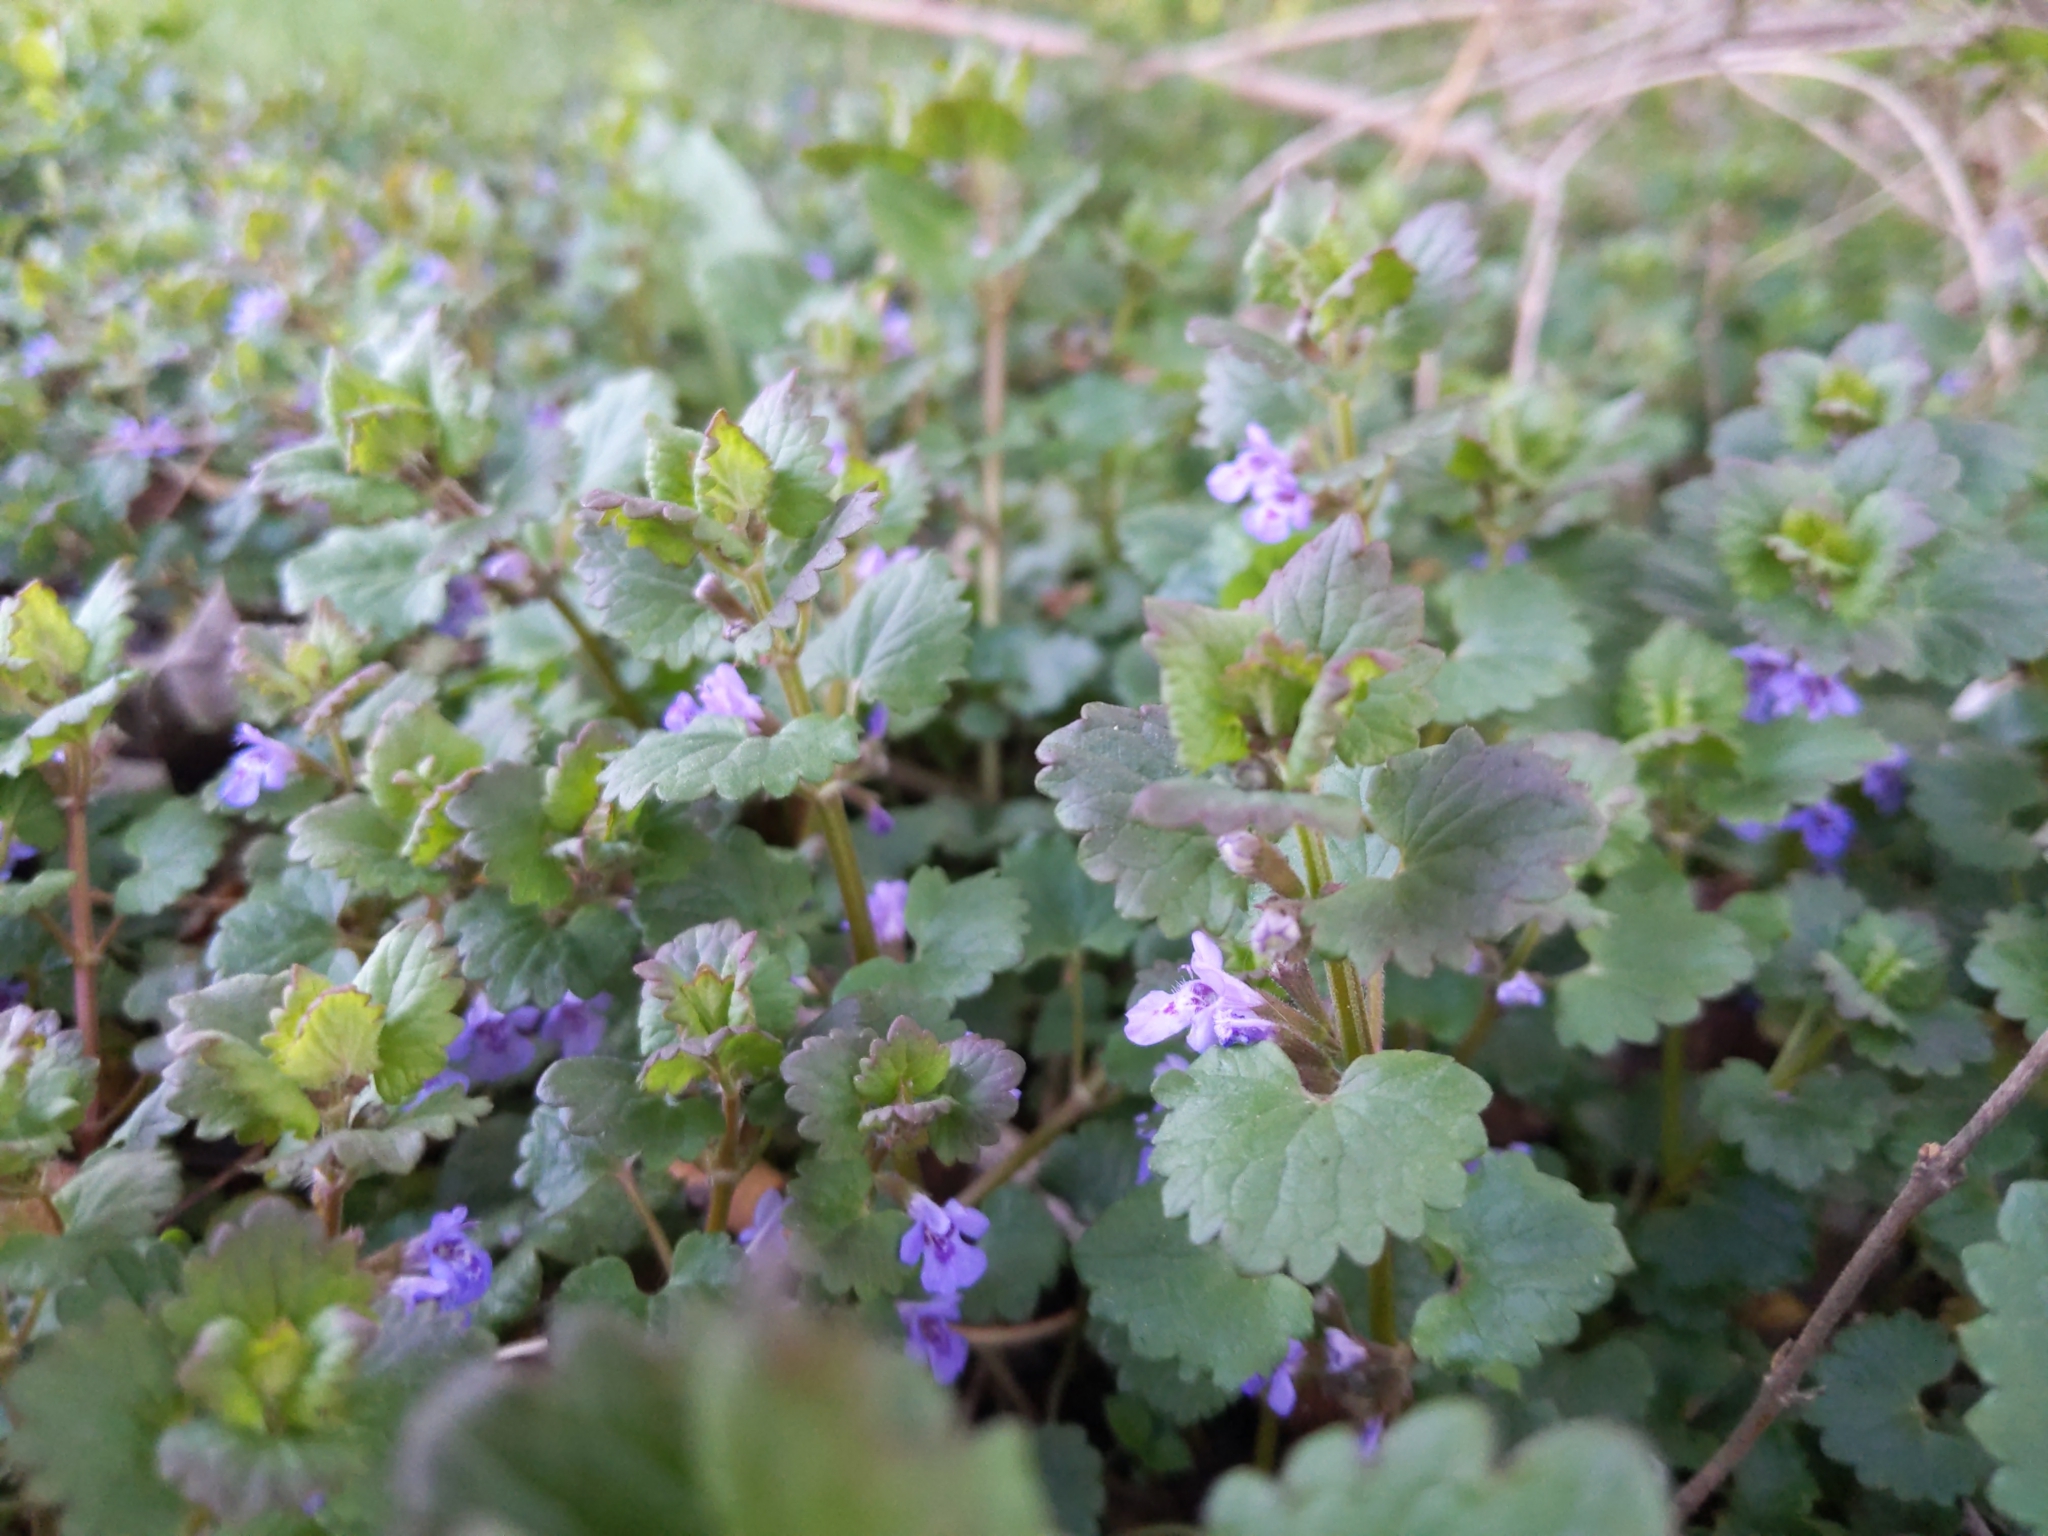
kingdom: Plantae
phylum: Tracheophyta
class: Magnoliopsida
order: Lamiales
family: Lamiaceae
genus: Glechoma
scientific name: Glechoma hederacea
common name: Ground ivy
